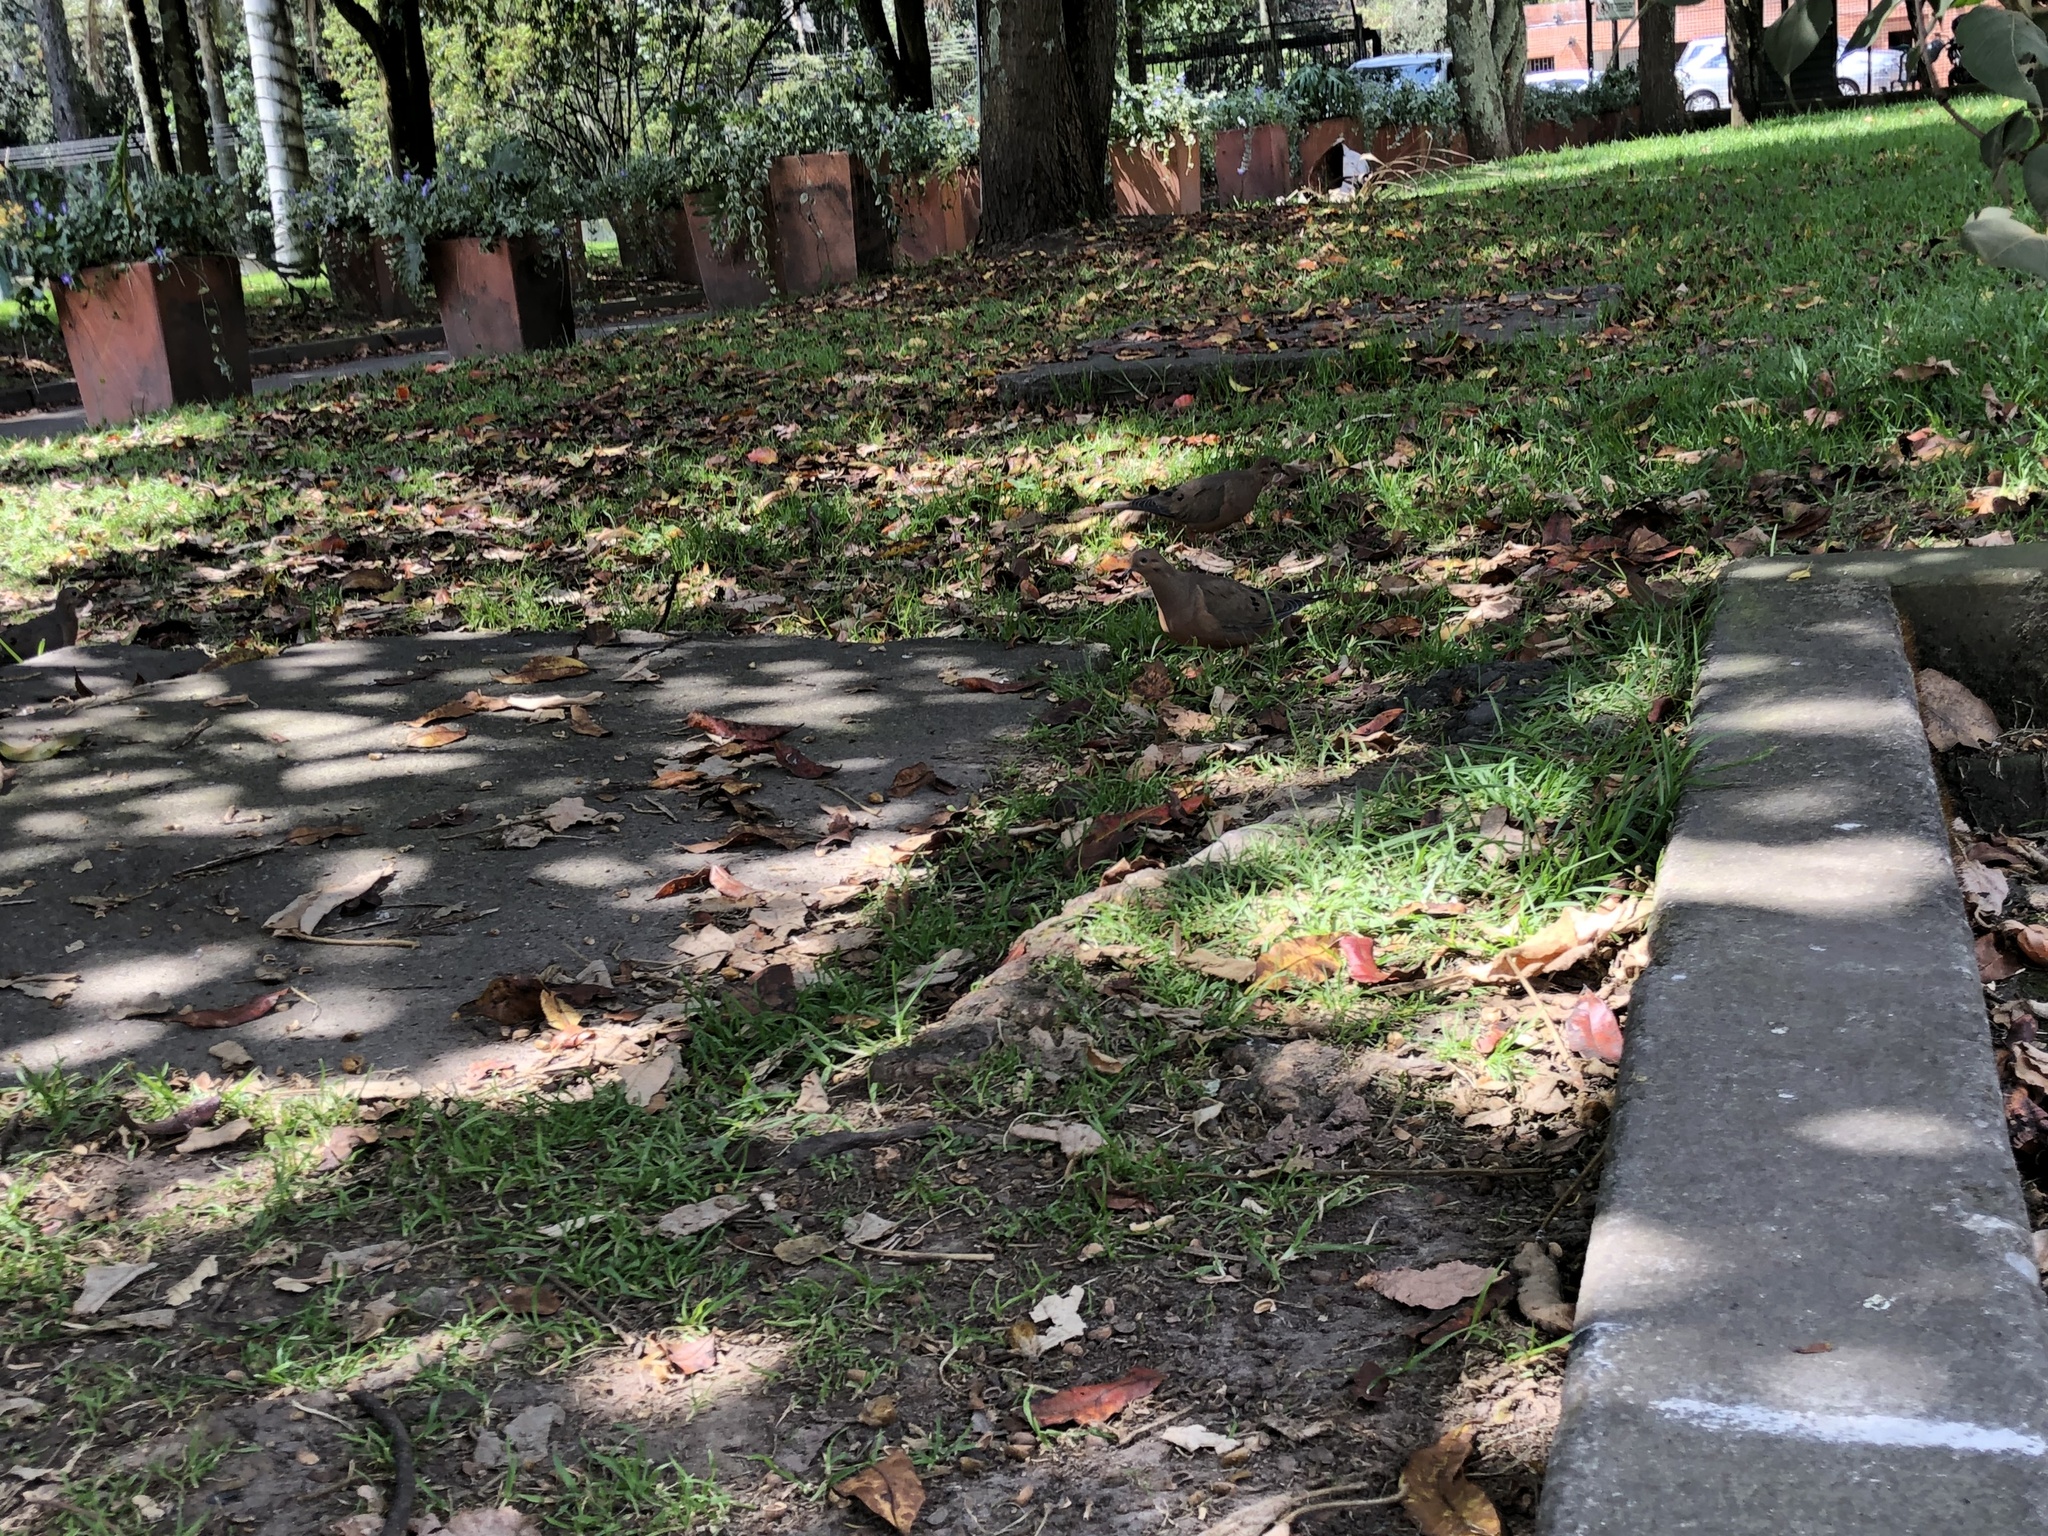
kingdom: Animalia
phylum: Chordata
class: Aves
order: Columbiformes
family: Columbidae
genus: Zenaida
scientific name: Zenaida auriculata
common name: Eared dove
